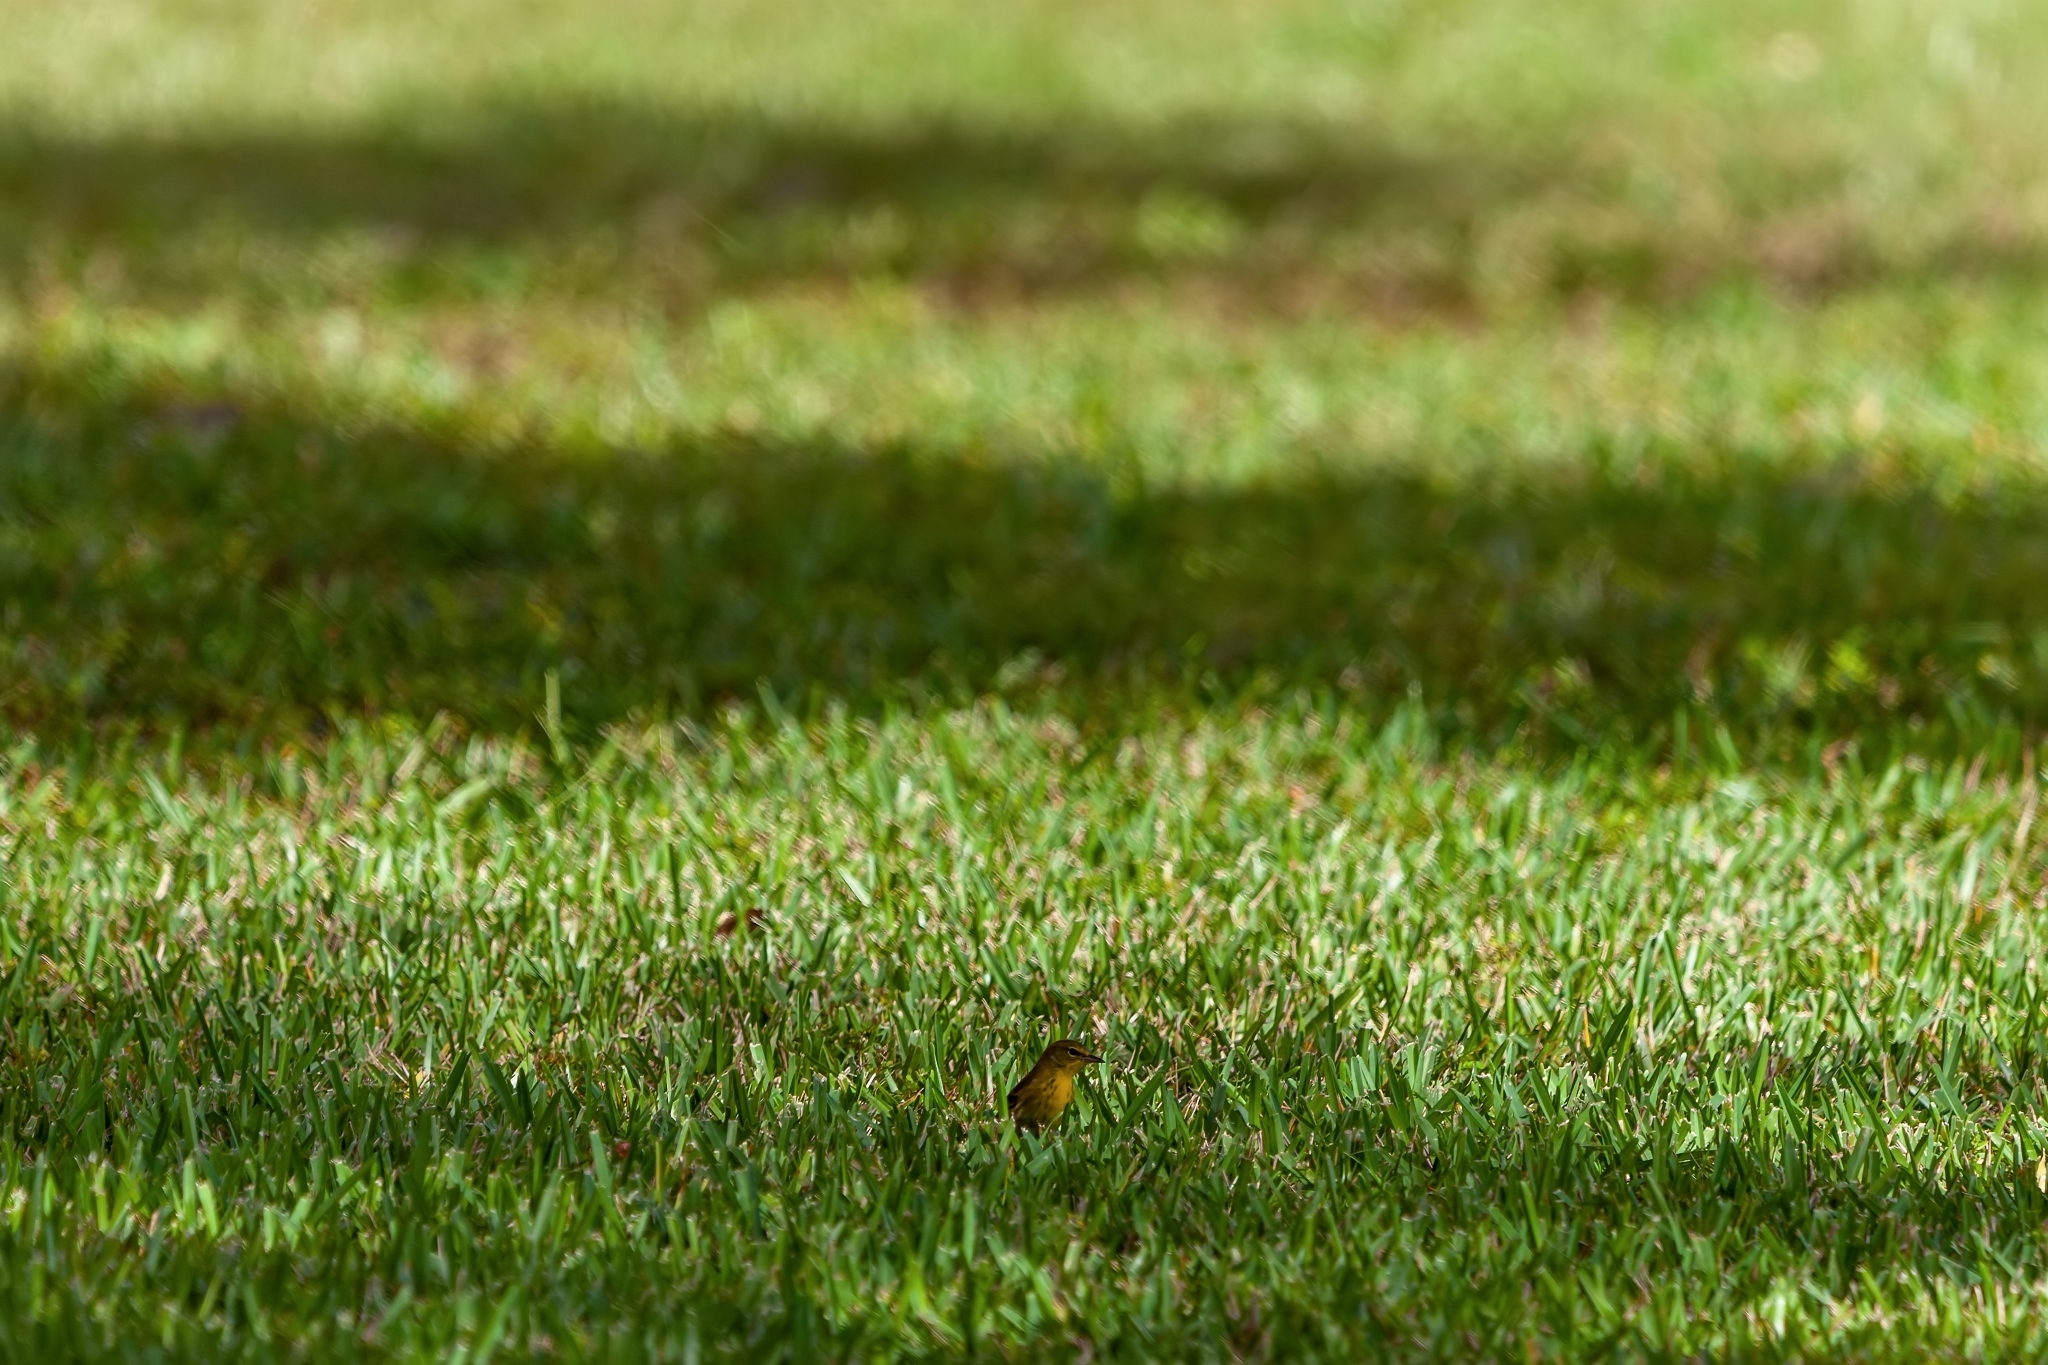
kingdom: Animalia
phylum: Chordata
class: Aves
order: Passeriformes
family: Parulidae
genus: Setophaga
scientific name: Setophaga palmarum
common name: Palm warbler
